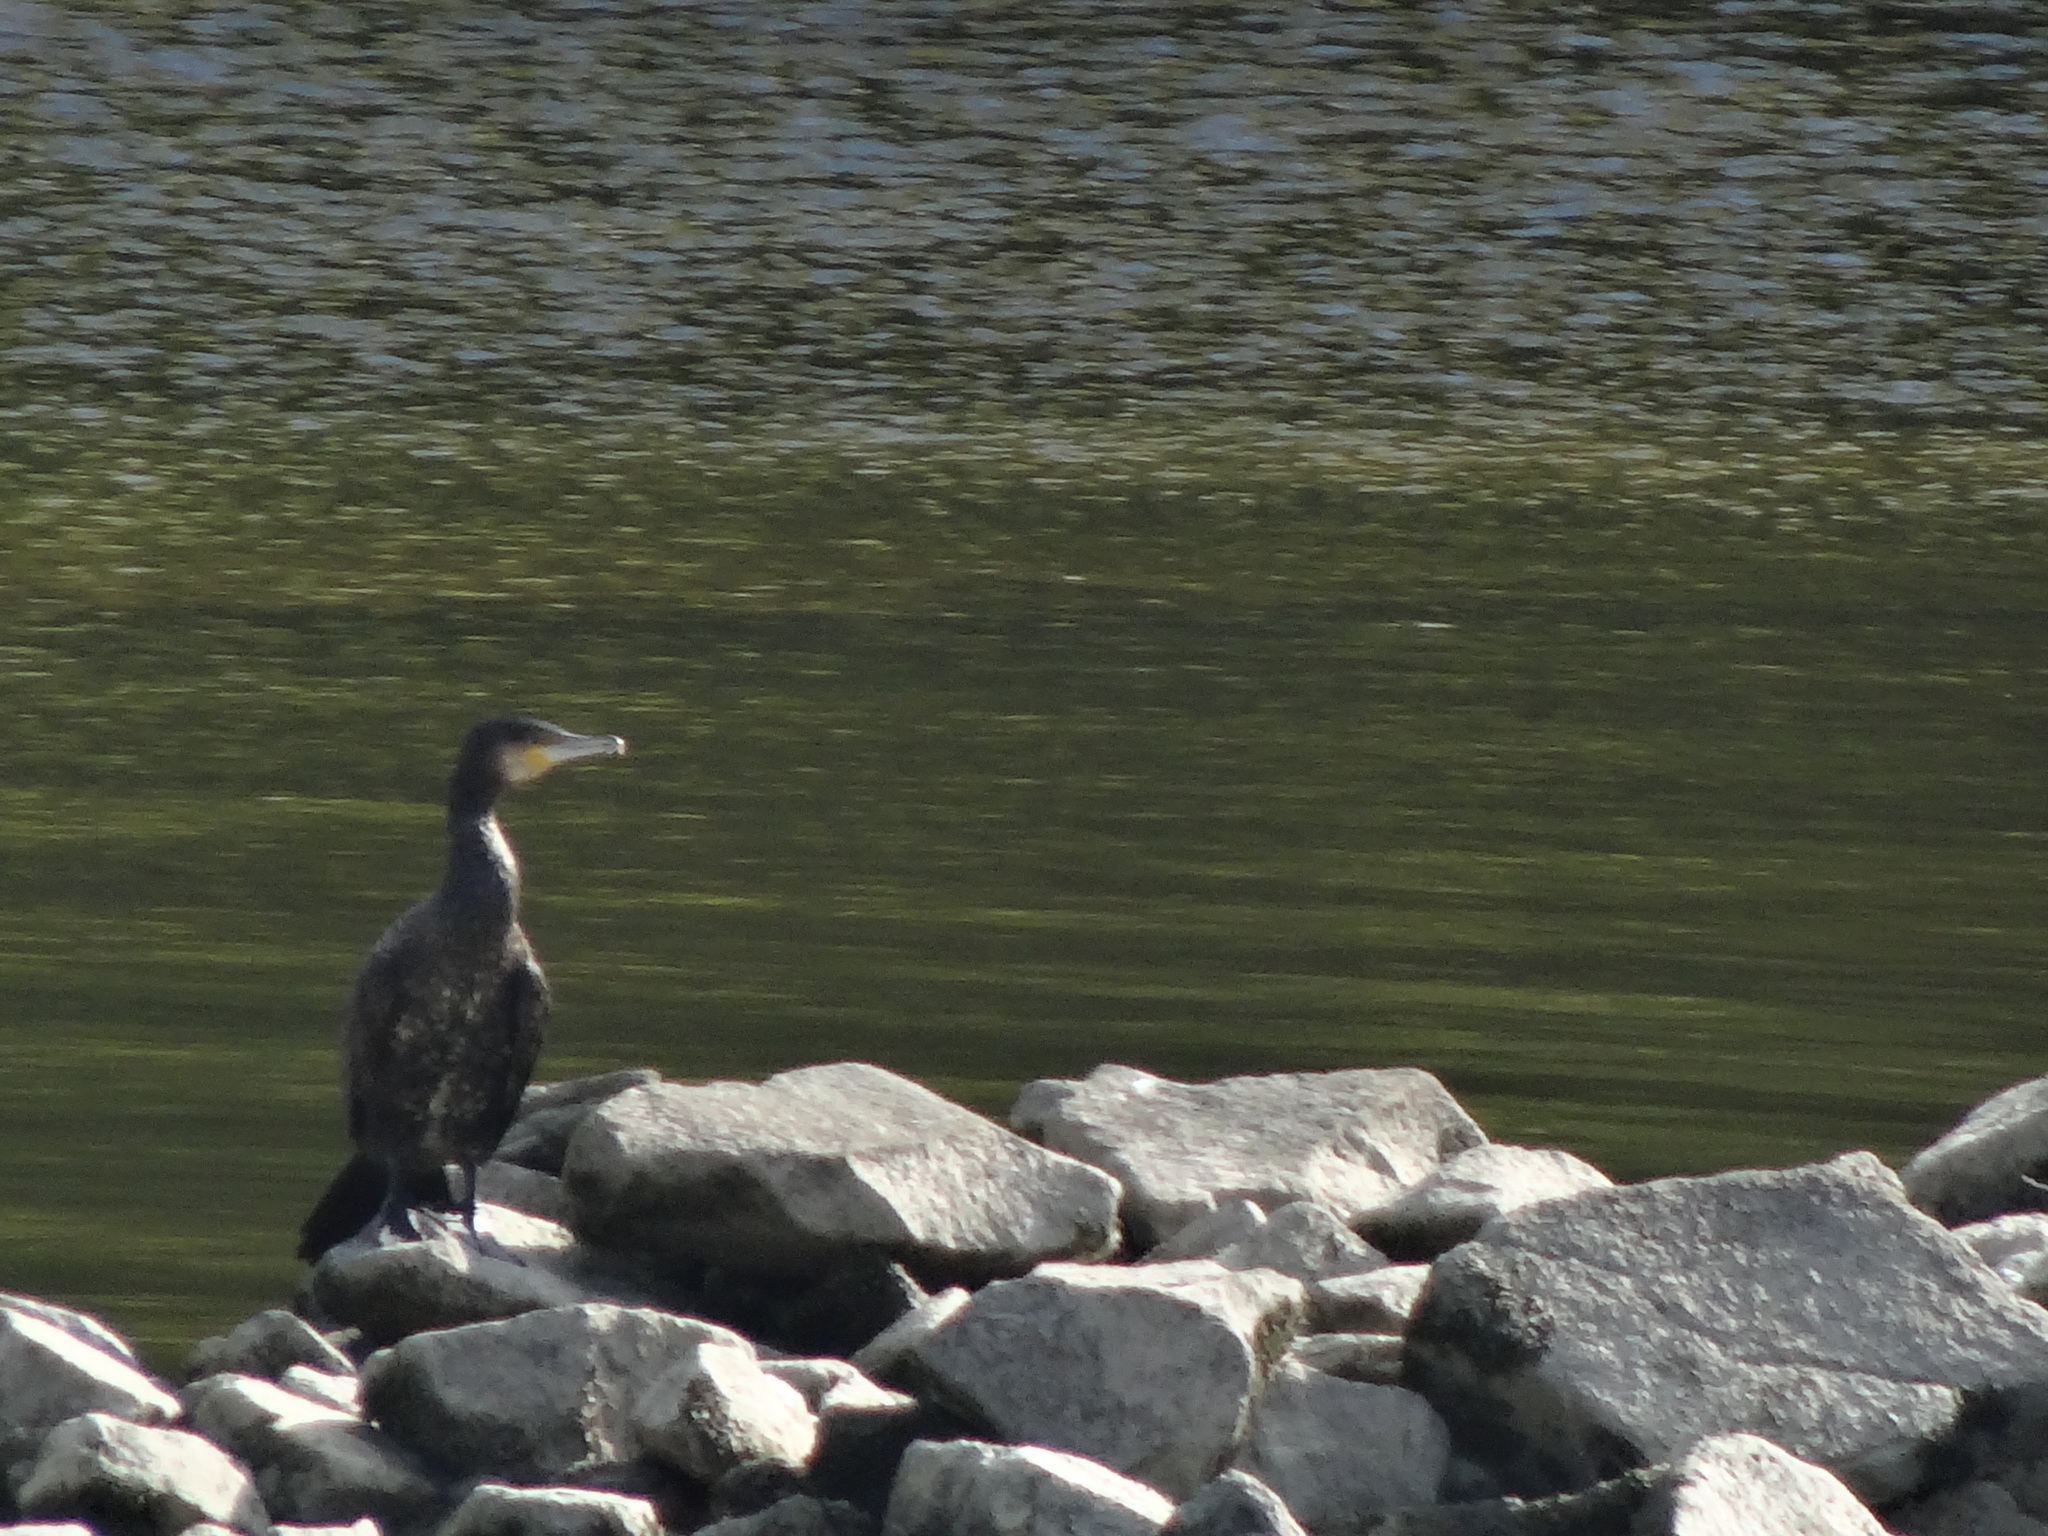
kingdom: Animalia
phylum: Chordata
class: Aves
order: Suliformes
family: Phalacrocoracidae
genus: Phalacrocorax
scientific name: Phalacrocorax carbo
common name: Great cormorant
